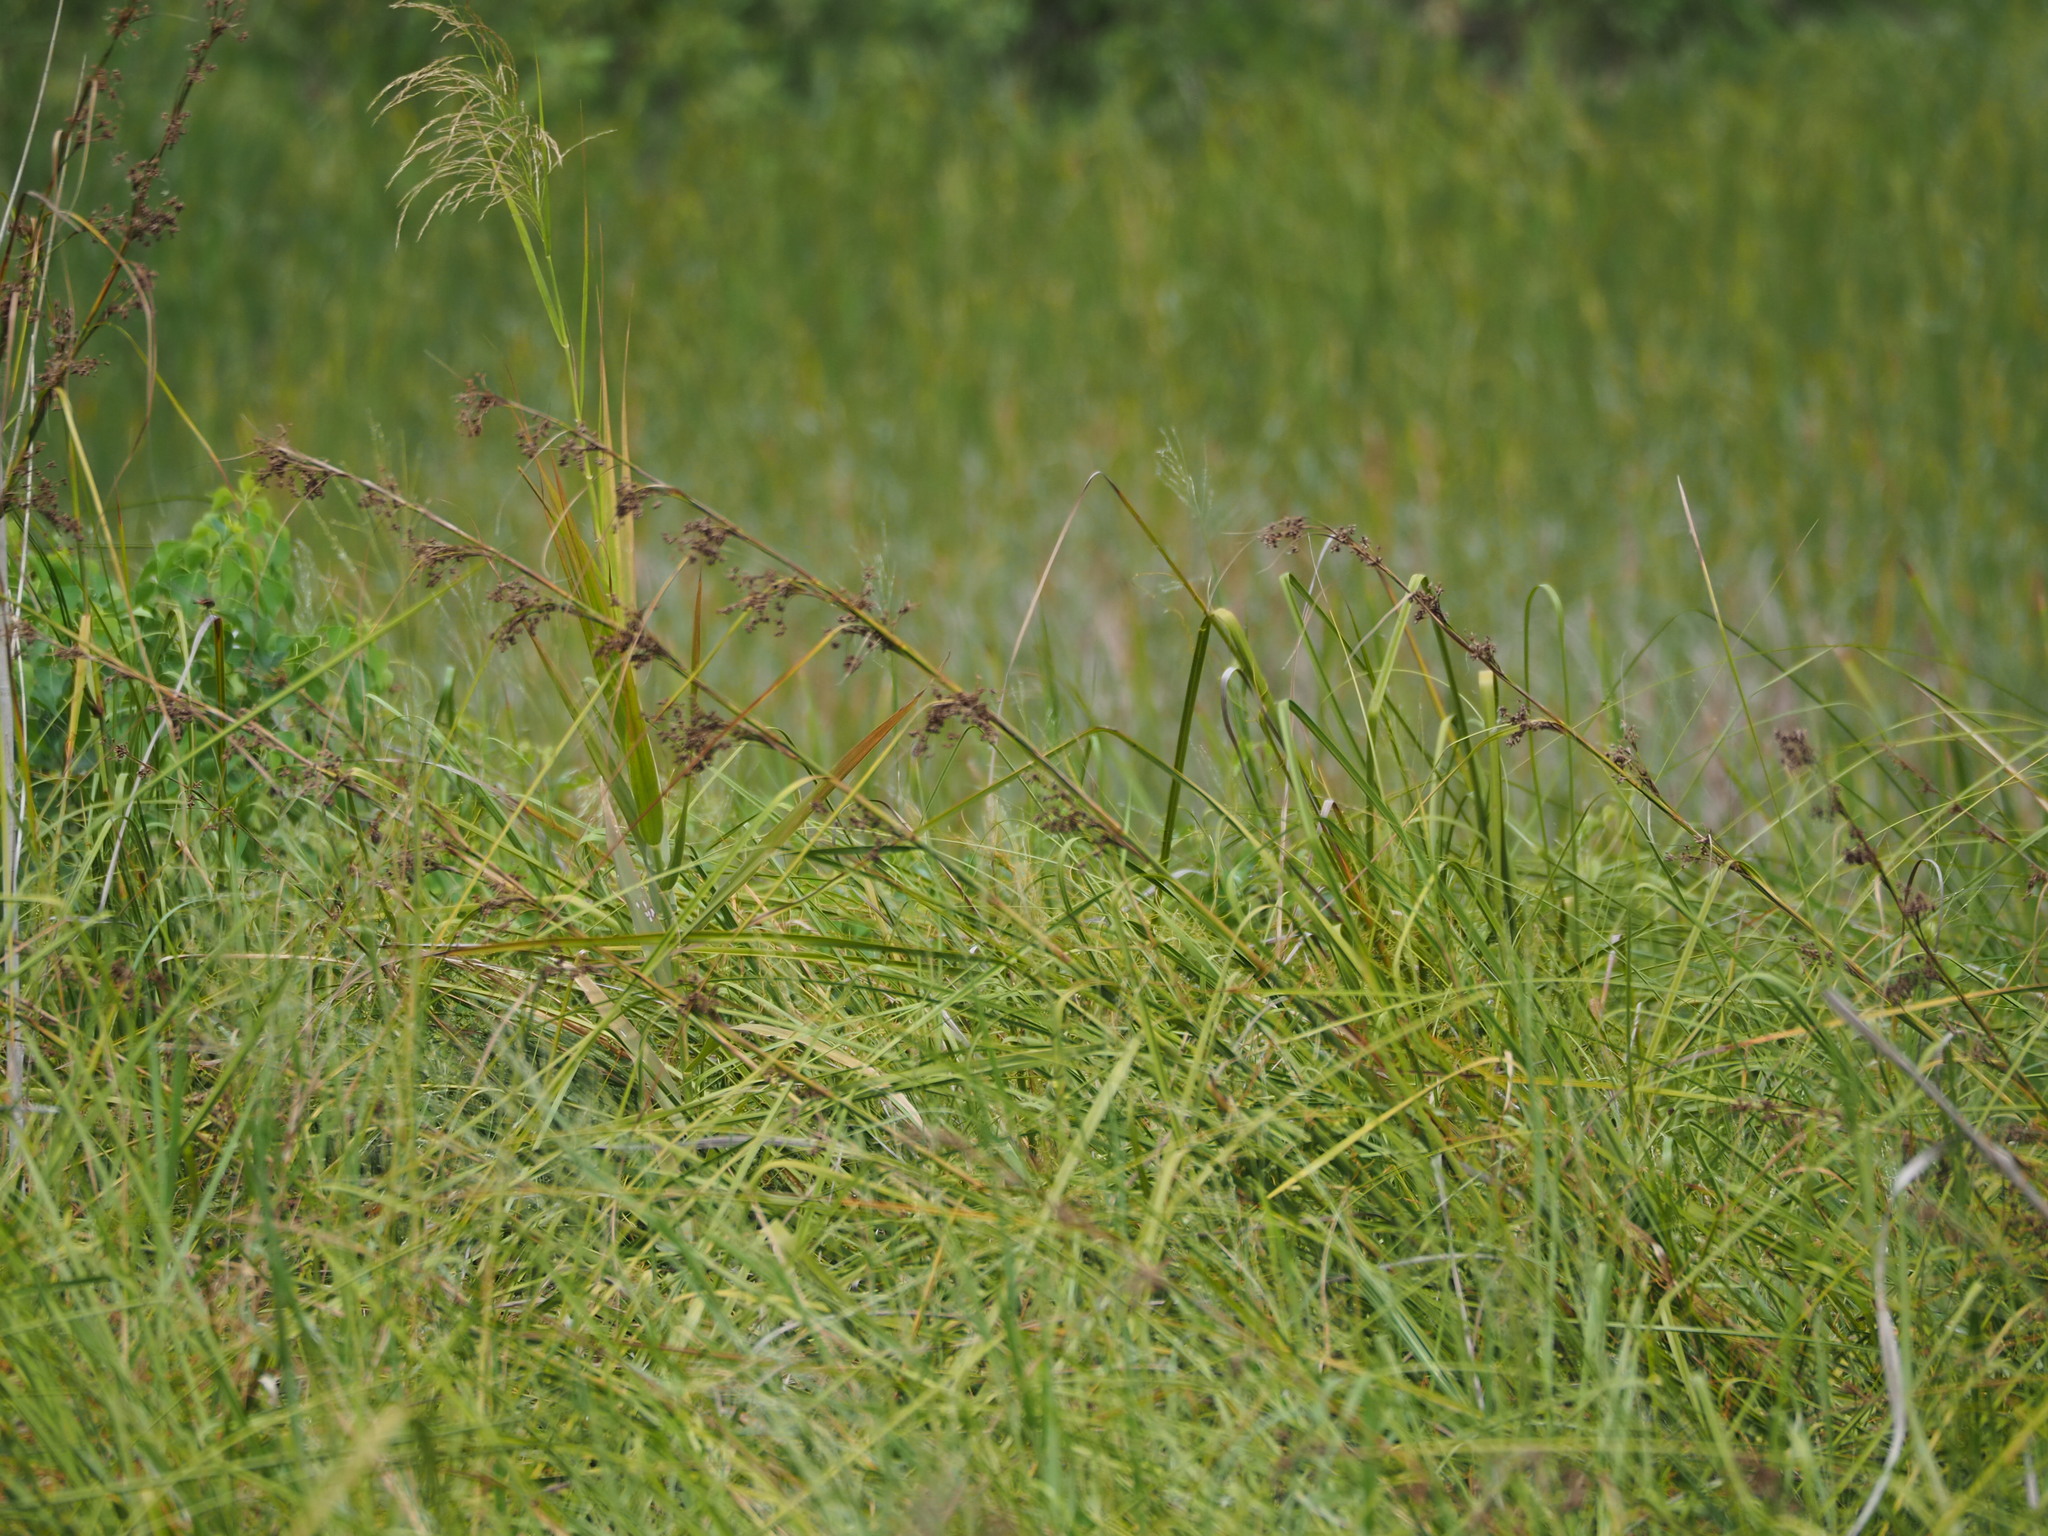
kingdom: Plantae
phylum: Tracheophyta
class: Liliopsida
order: Poales
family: Cyperaceae
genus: Cladium
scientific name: Cladium mariscus
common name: Great fen-sedge
